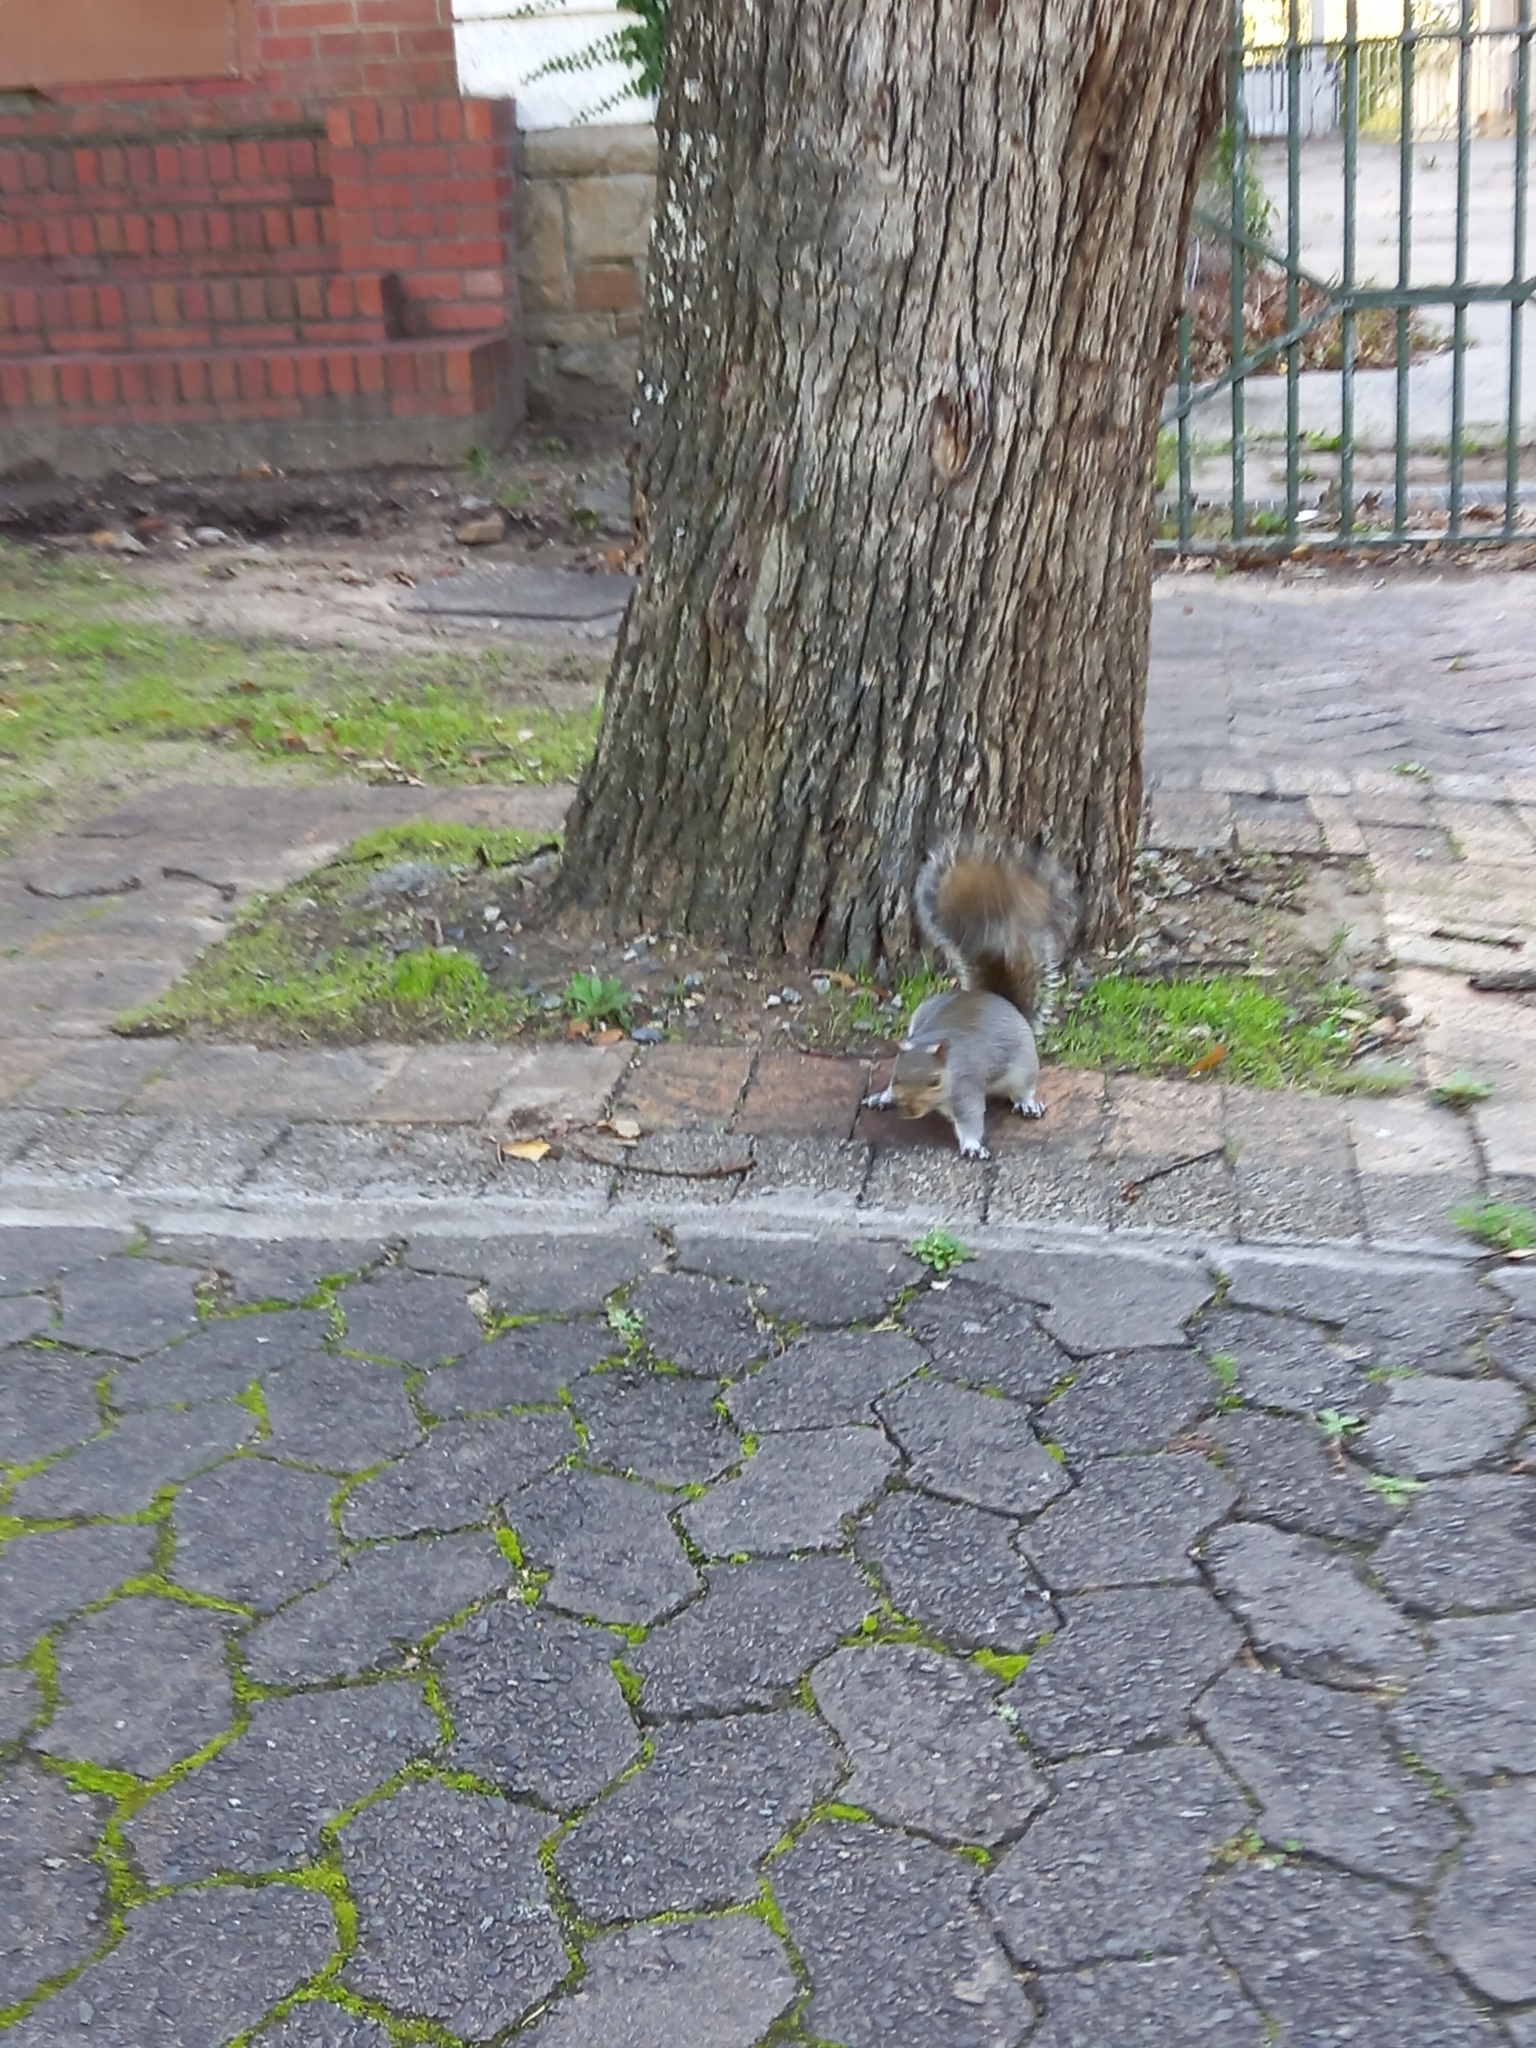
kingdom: Animalia
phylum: Chordata
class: Mammalia
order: Rodentia
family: Sciuridae
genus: Sciurus
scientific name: Sciurus carolinensis
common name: Eastern gray squirrel
